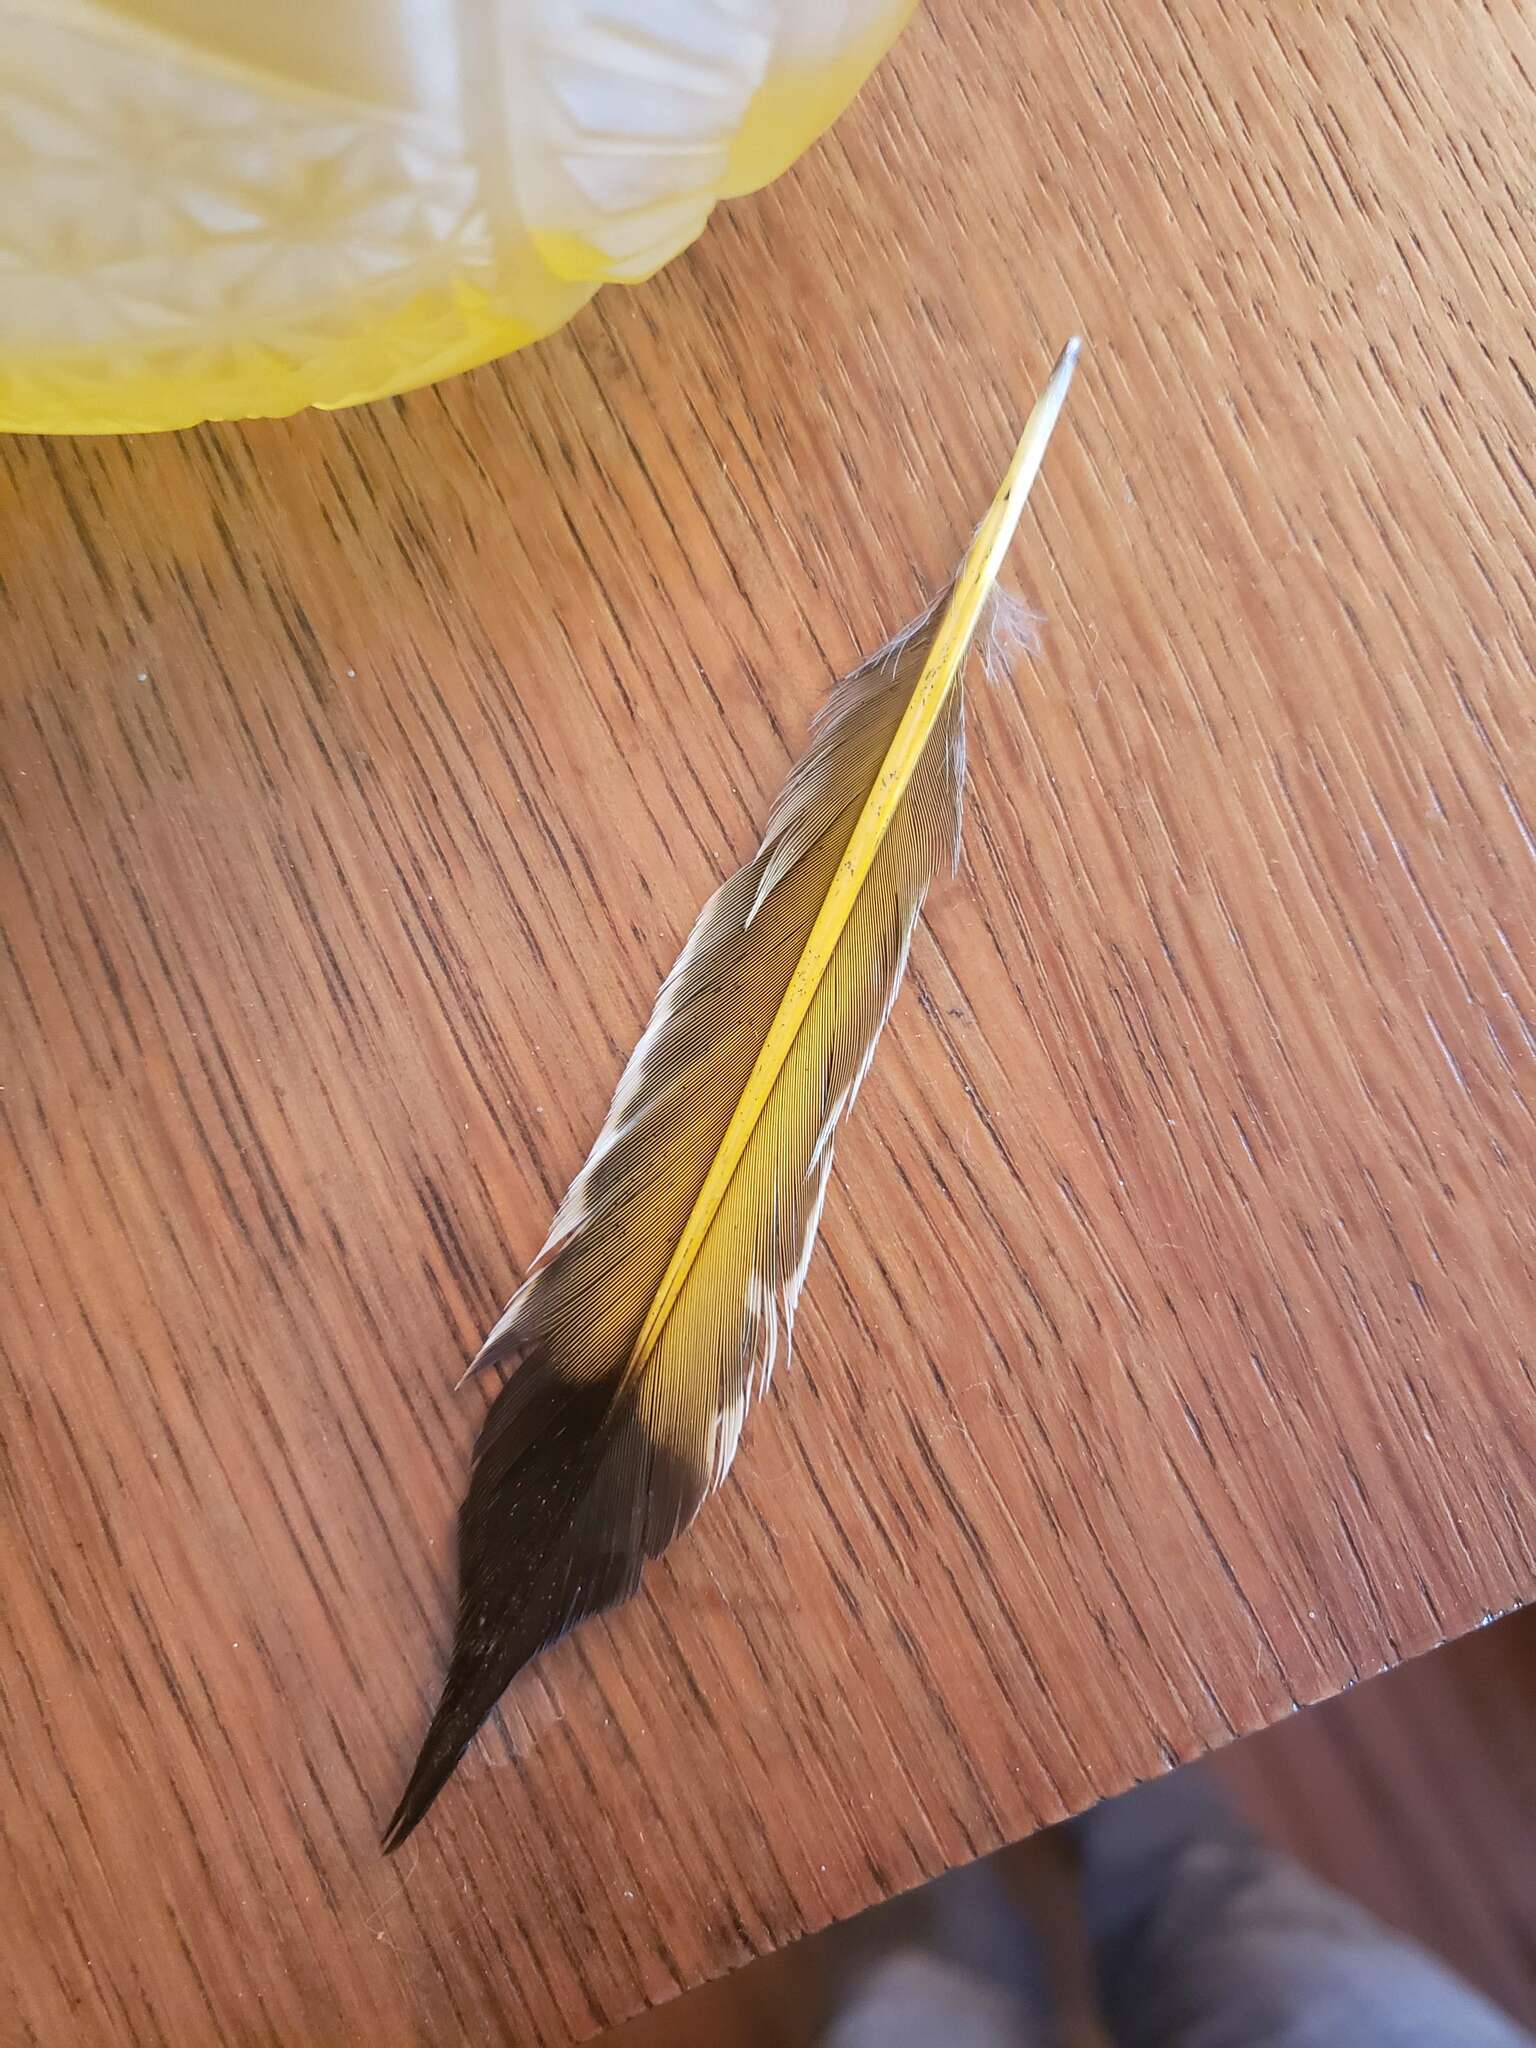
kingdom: Animalia
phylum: Chordata
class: Aves
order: Piciformes
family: Picidae
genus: Colaptes
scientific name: Colaptes auratus
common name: Northern flicker
